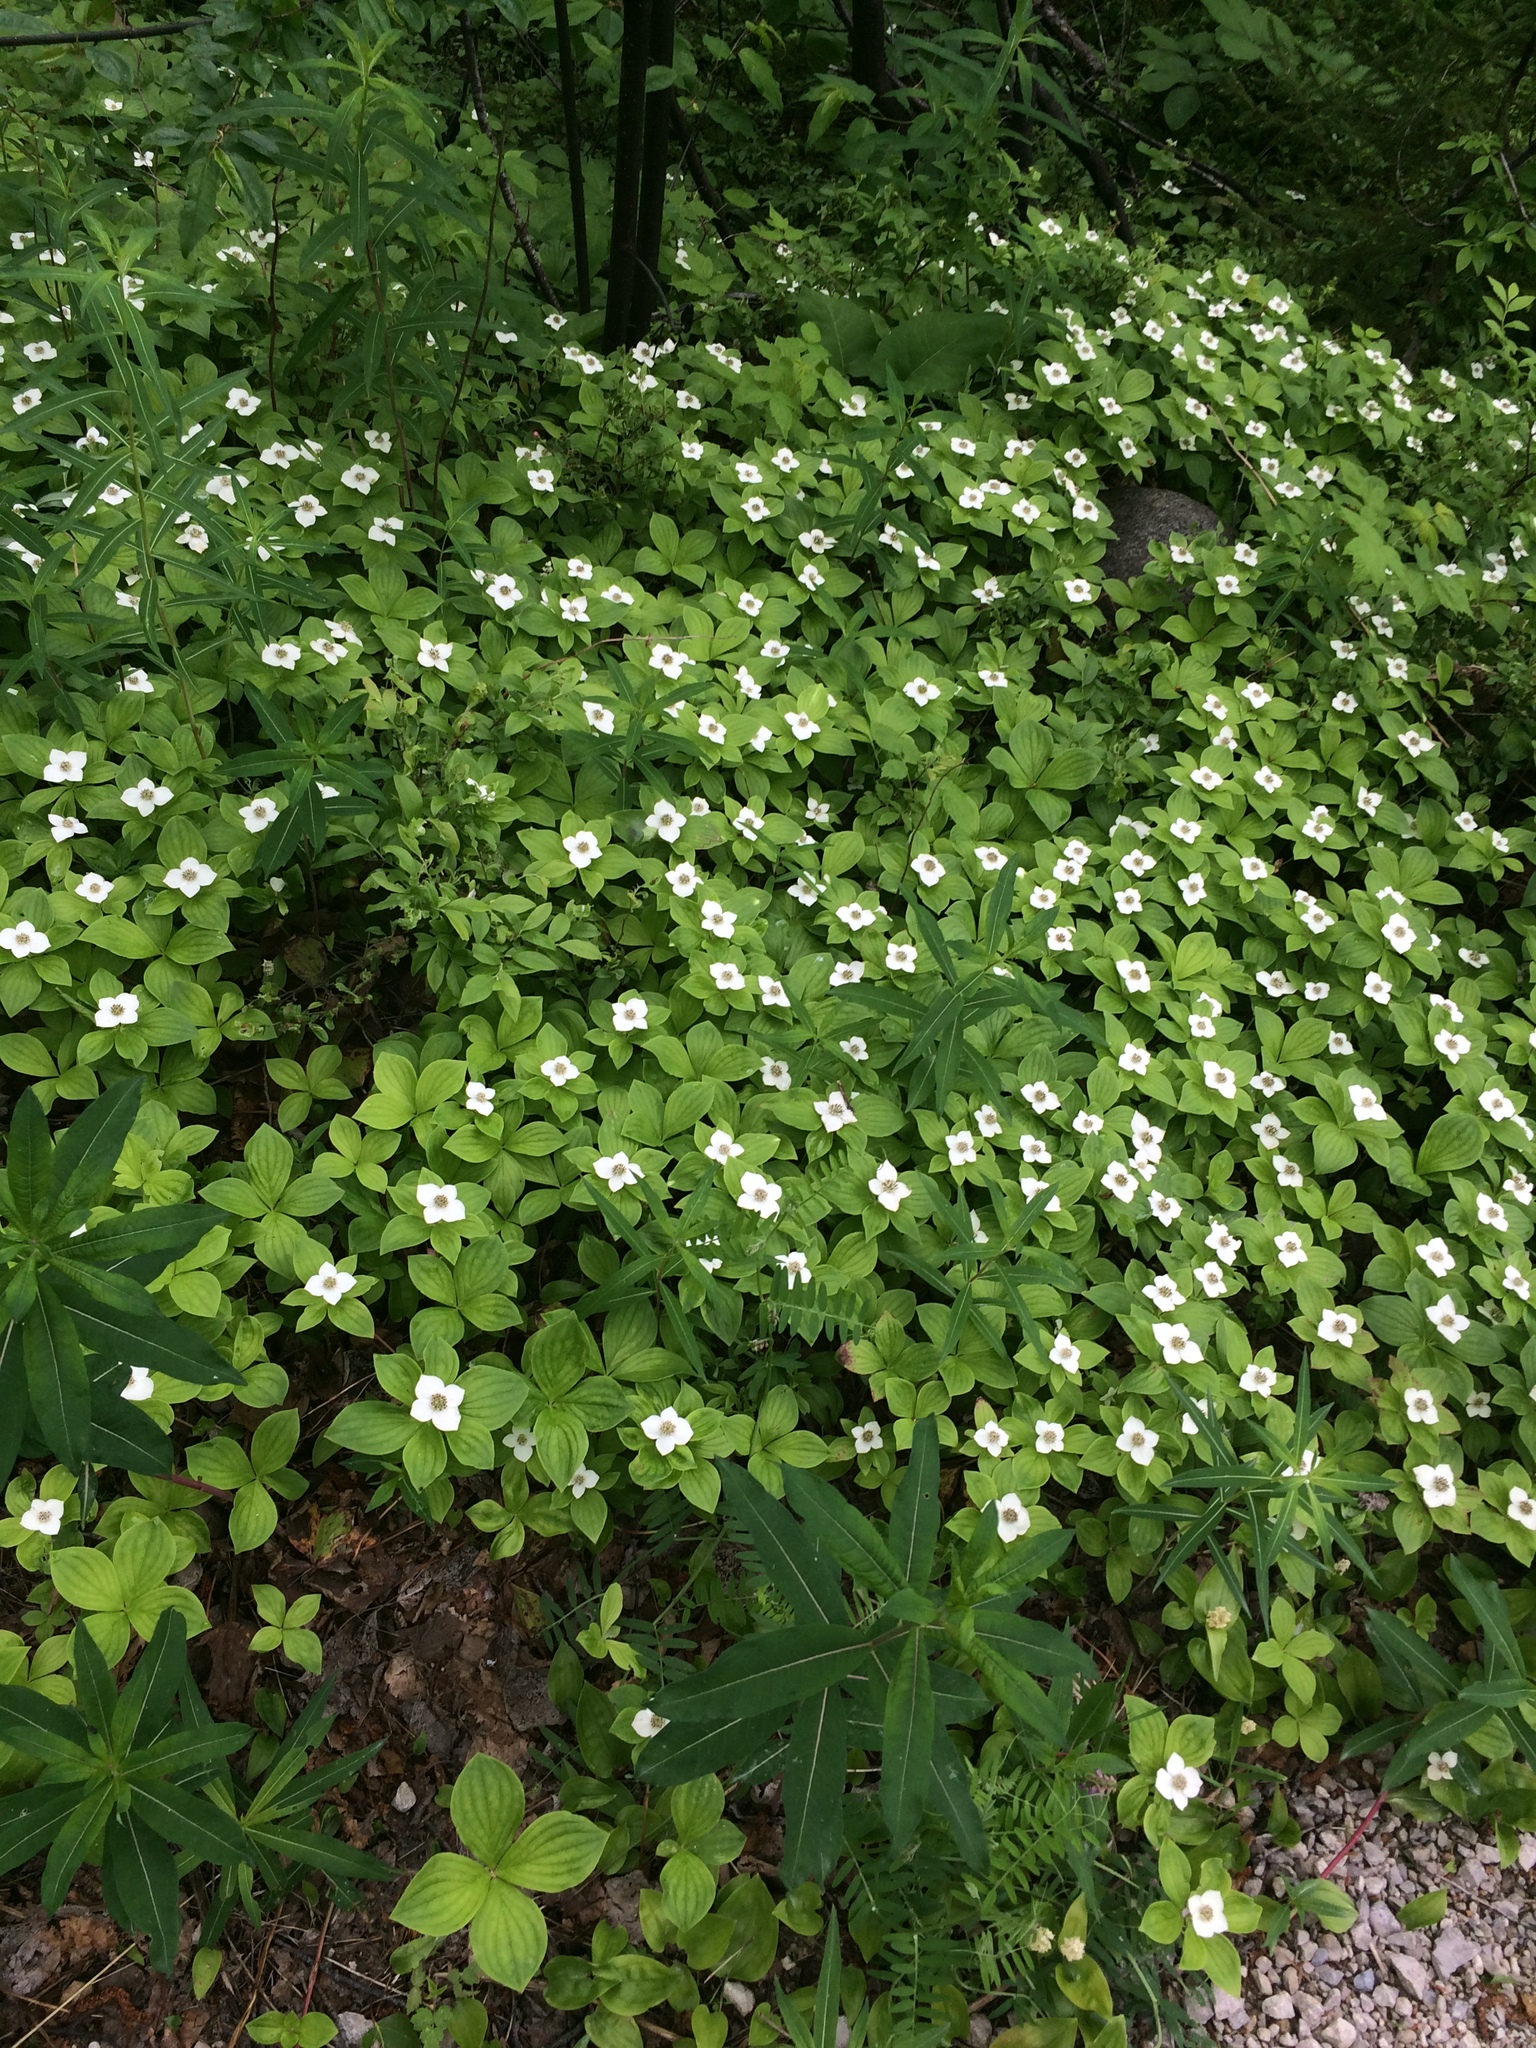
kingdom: Plantae
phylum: Tracheophyta
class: Magnoliopsida
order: Cornales
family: Cornaceae
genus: Cornus
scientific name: Cornus canadensis
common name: Creeping dogwood
